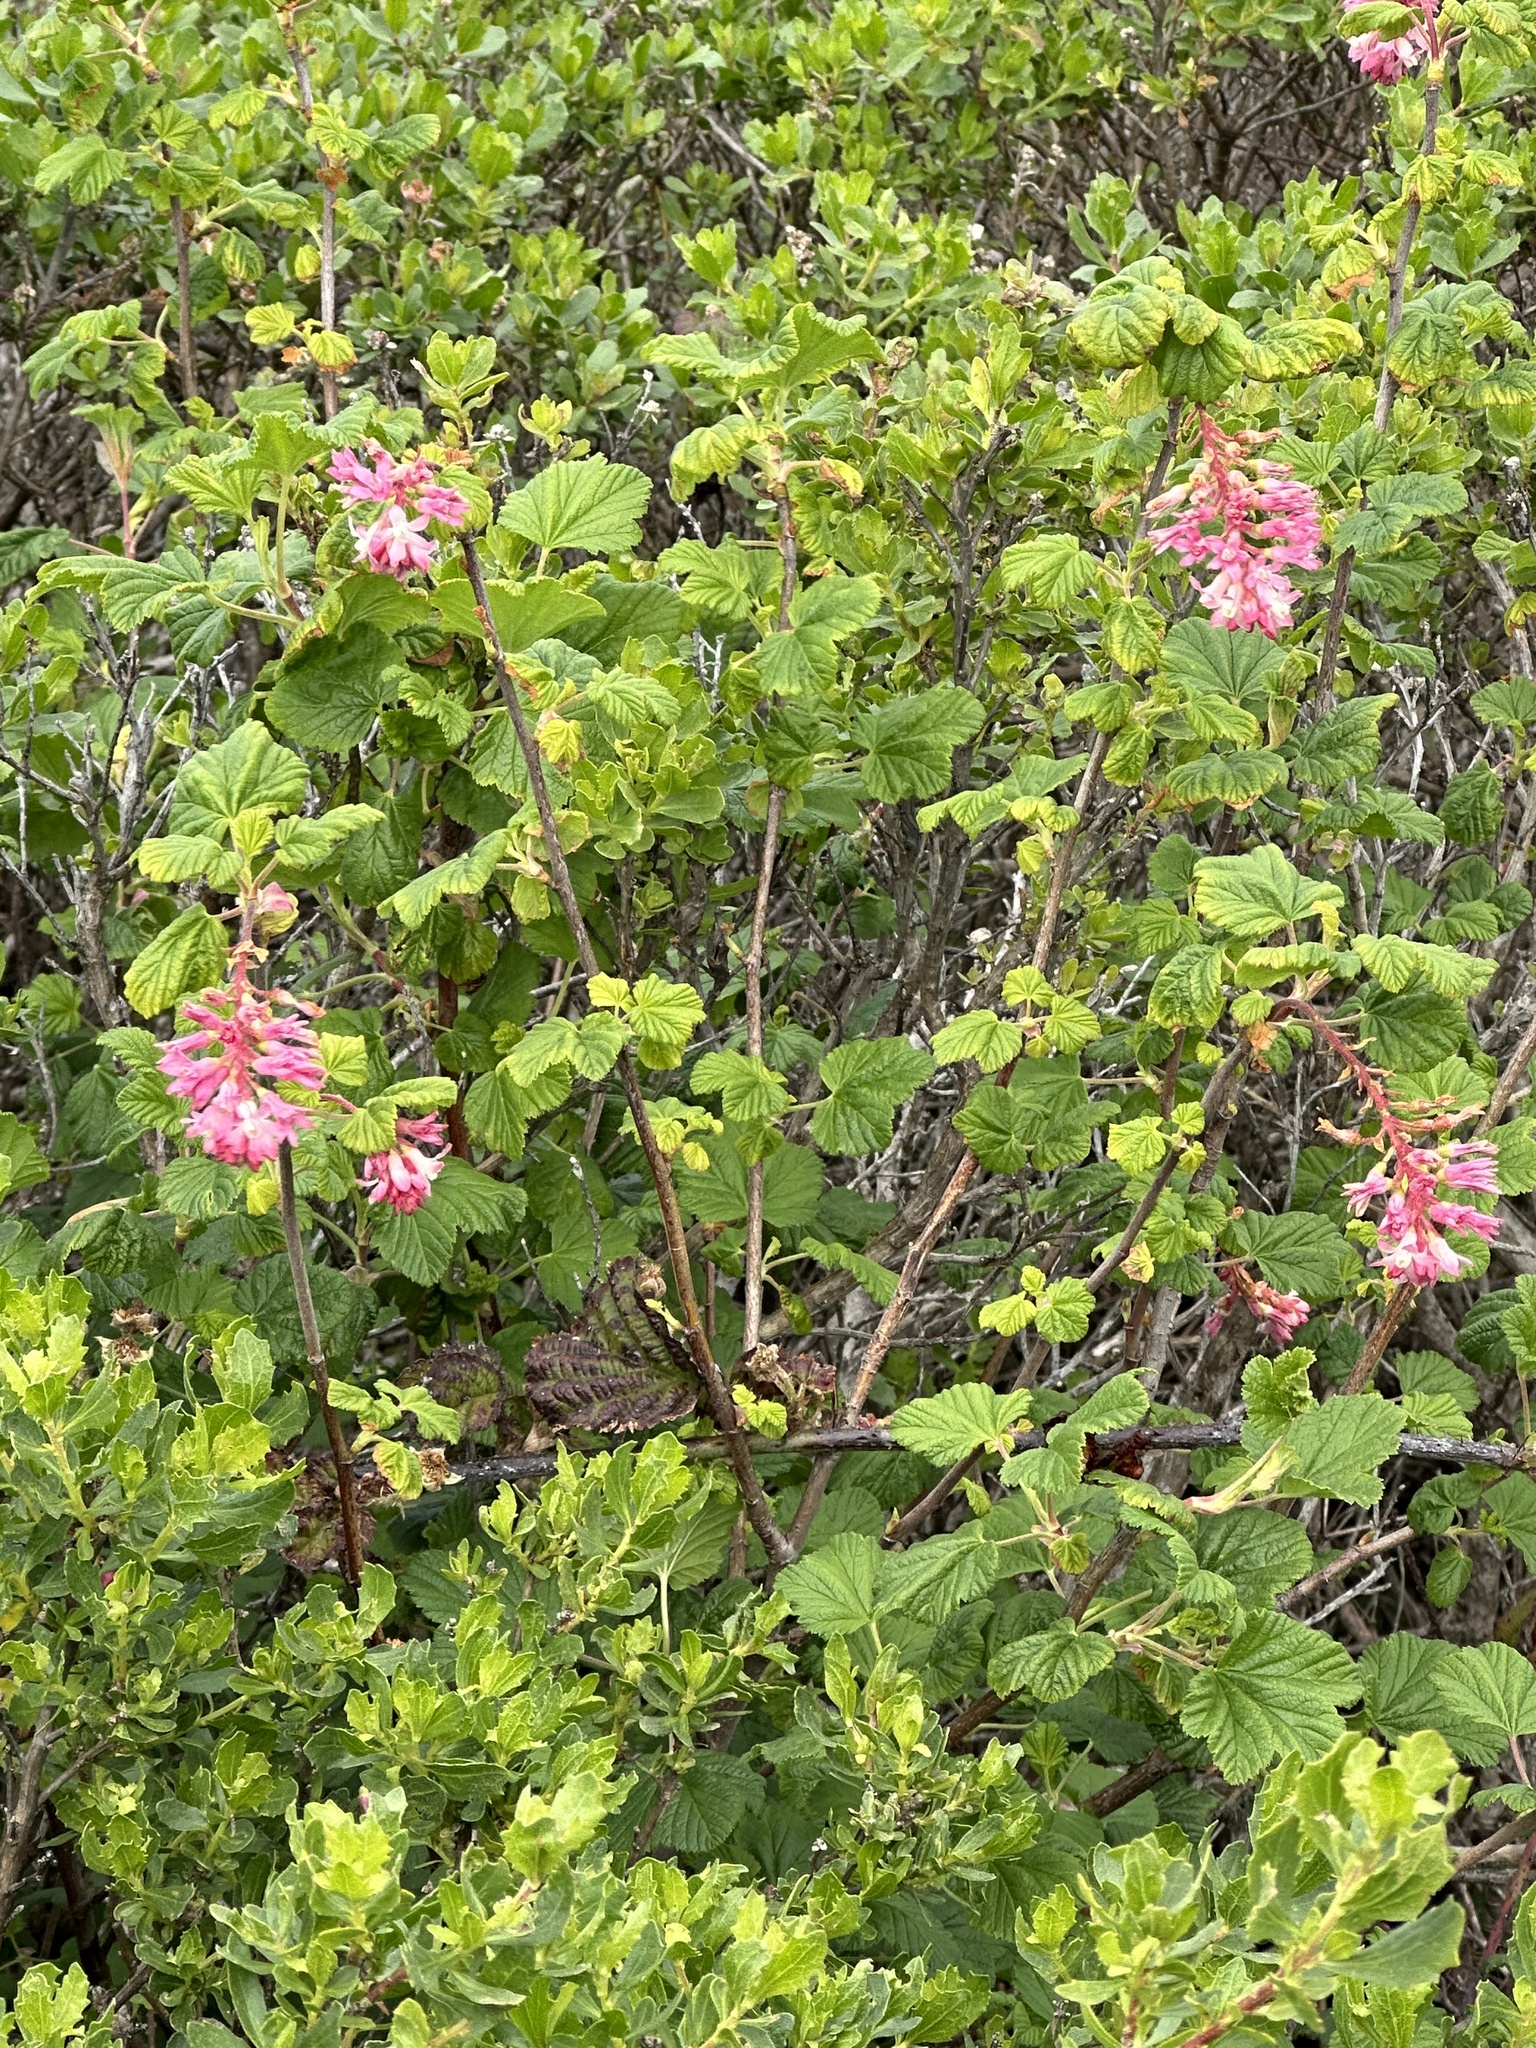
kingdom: Plantae
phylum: Tracheophyta
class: Magnoliopsida
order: Saxifragales
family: Grossulariaceae
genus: Ribes
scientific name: Ribes sanguineum
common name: Flowering currant
